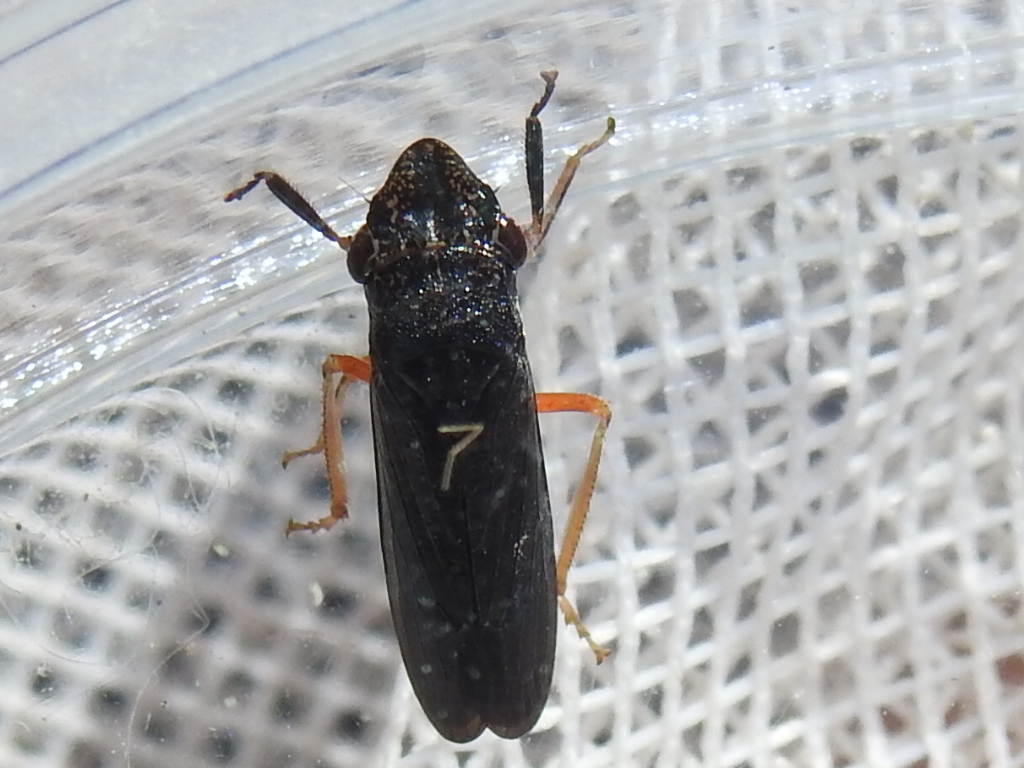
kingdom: Animalia
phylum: Arthropoda
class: Insecta
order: Hemiptera
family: Cicadellidae
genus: Homalodisca
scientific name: Homalodisca insolita
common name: Johnson grass sharpshooter
